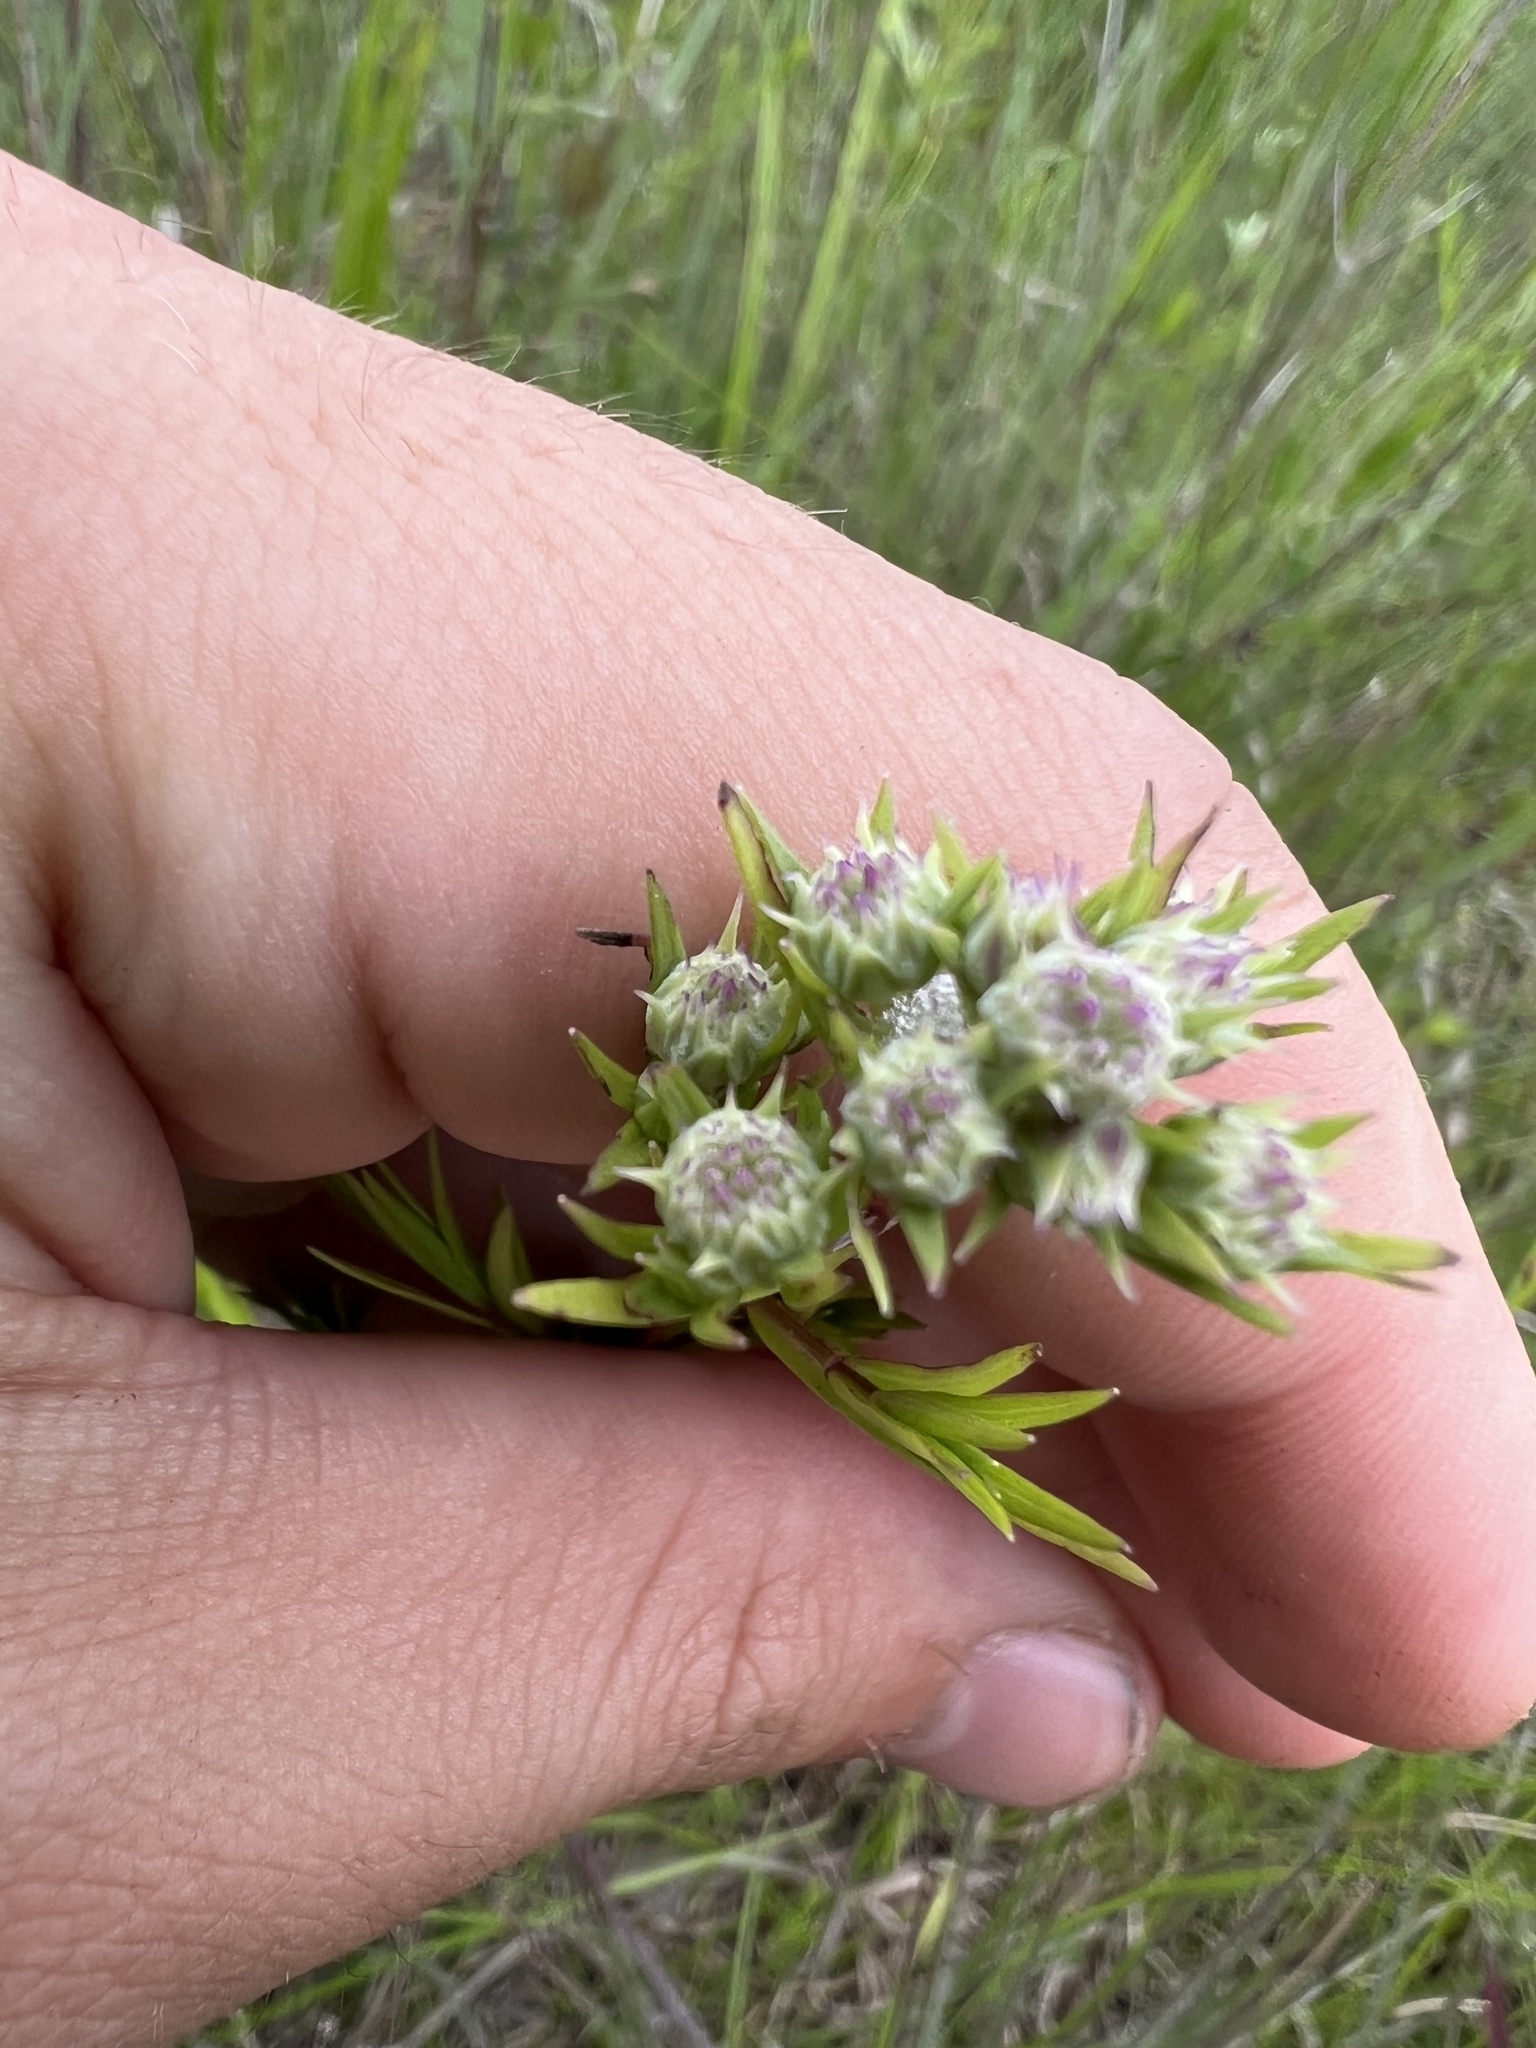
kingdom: Plantae
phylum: Tracheophyta
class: Magnoliopsida
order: Lamiales
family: Lamiaceae
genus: Pycnanthemum
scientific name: Pycnanthemum tenuifolium
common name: Narrow-leaf mountain-mint
